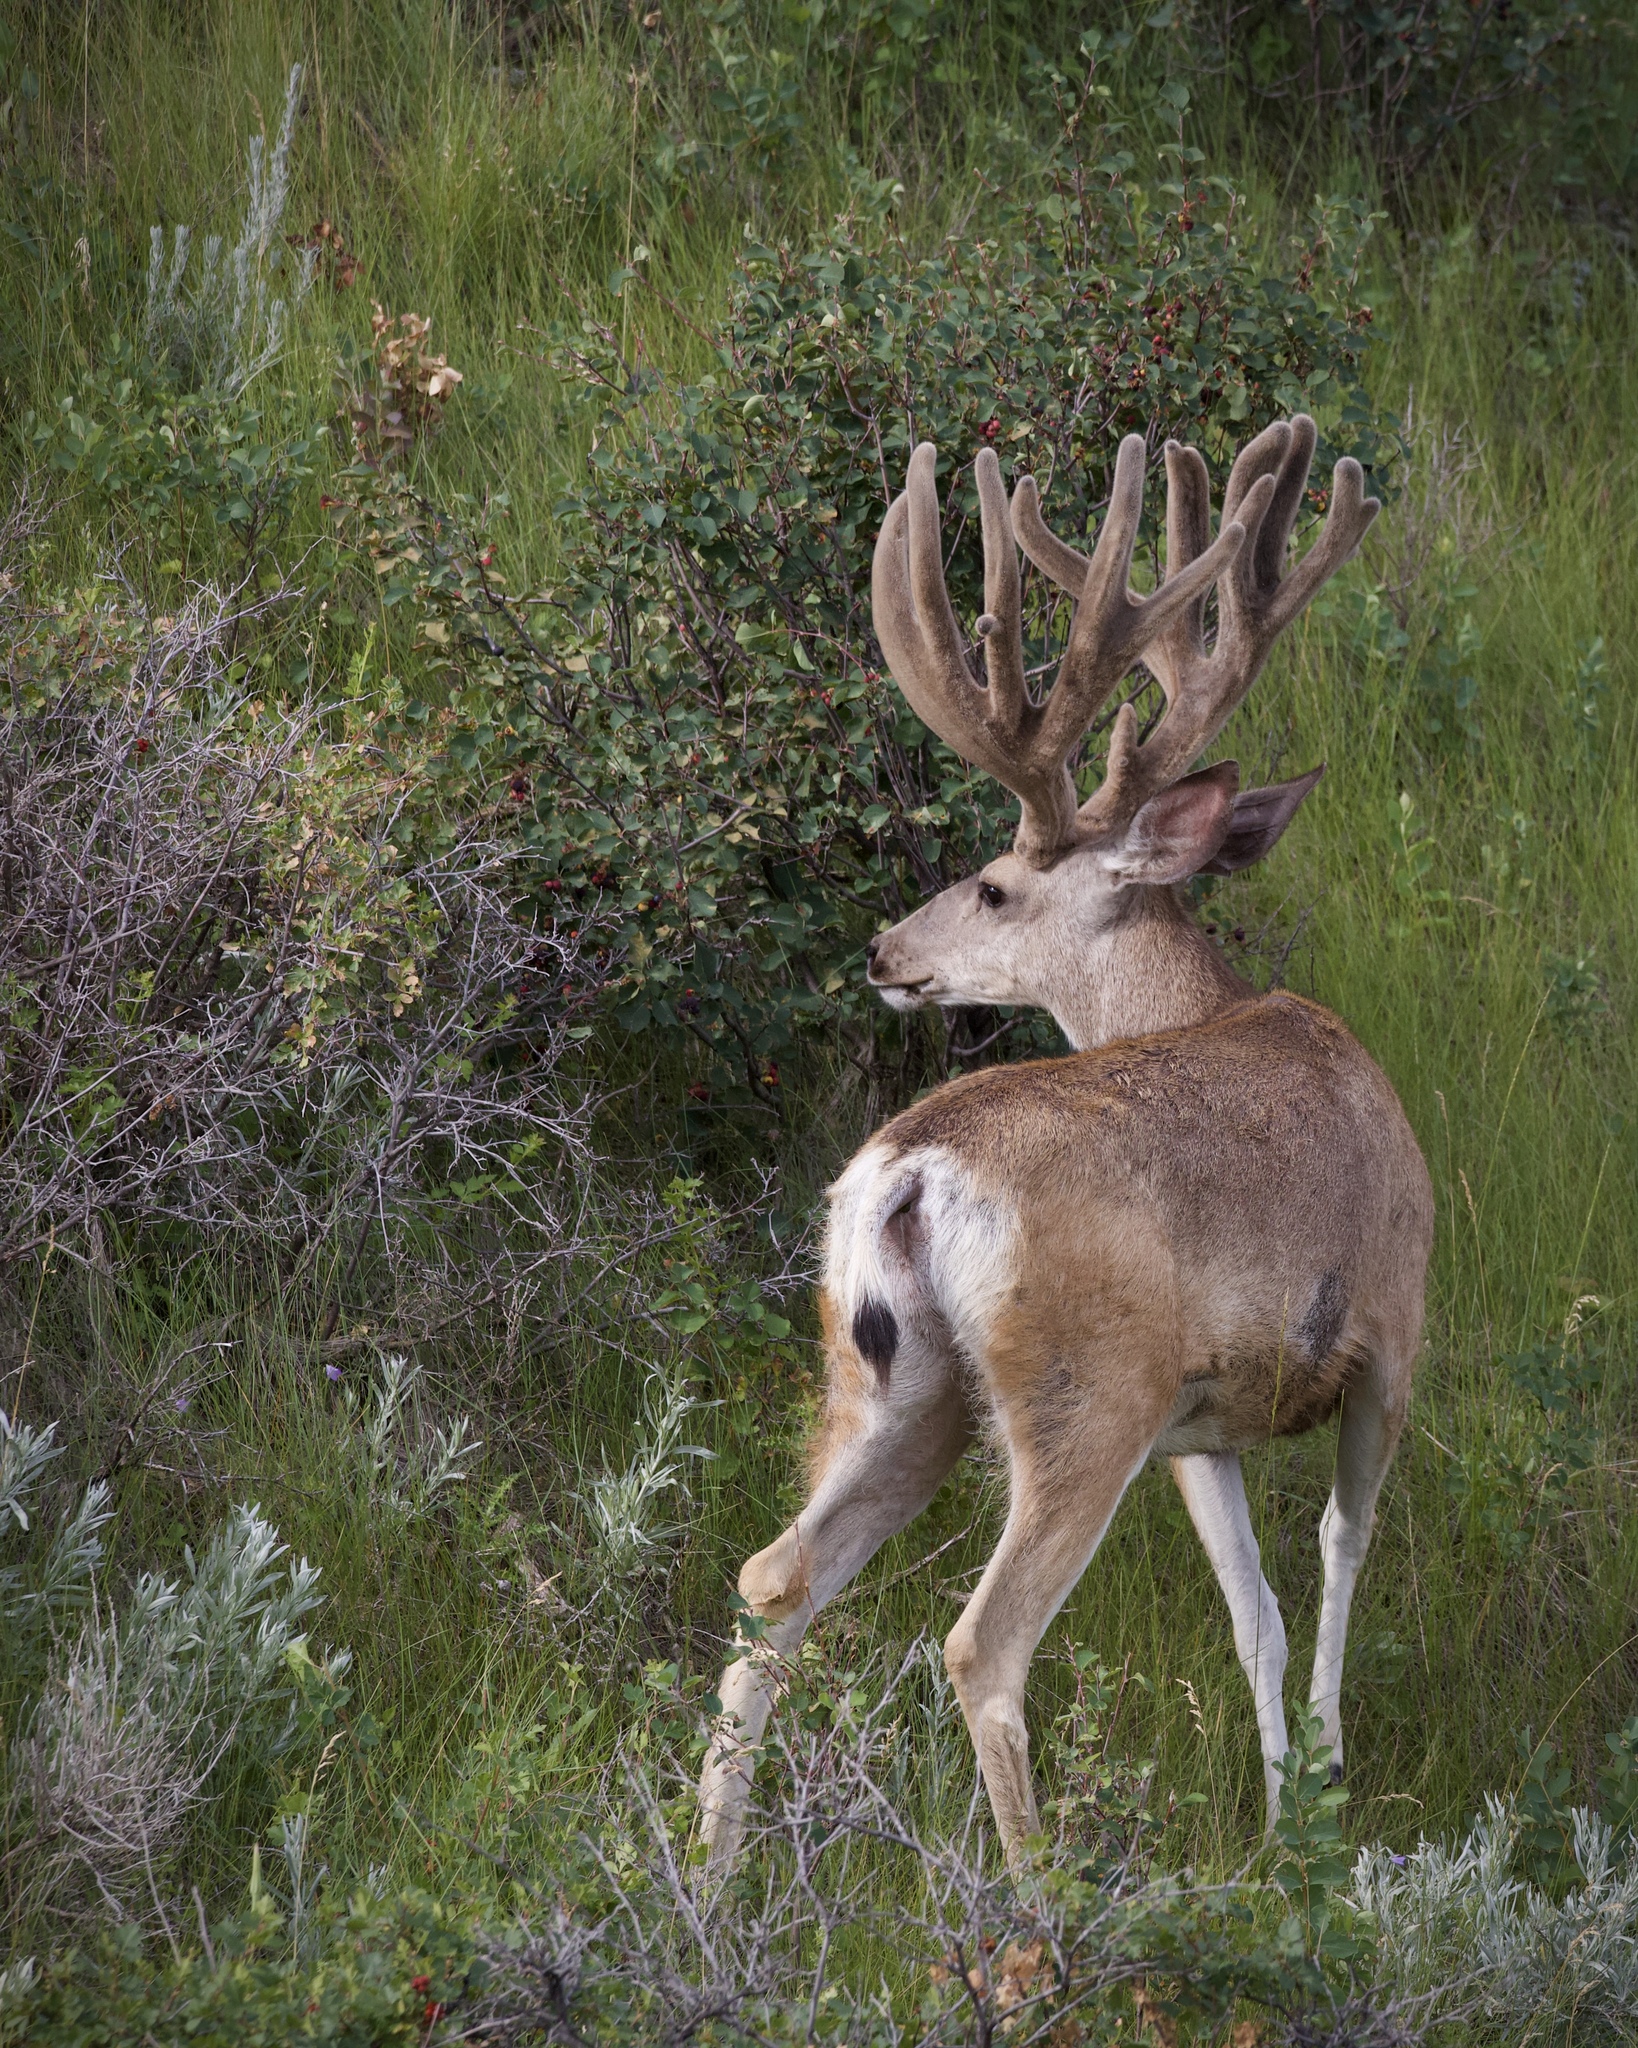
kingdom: Animalia
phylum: Chordata
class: Mammalia
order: Artiodactyla
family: Cervidae
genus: Odocoileus
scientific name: Odocoileus hemionus
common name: Mule deer
